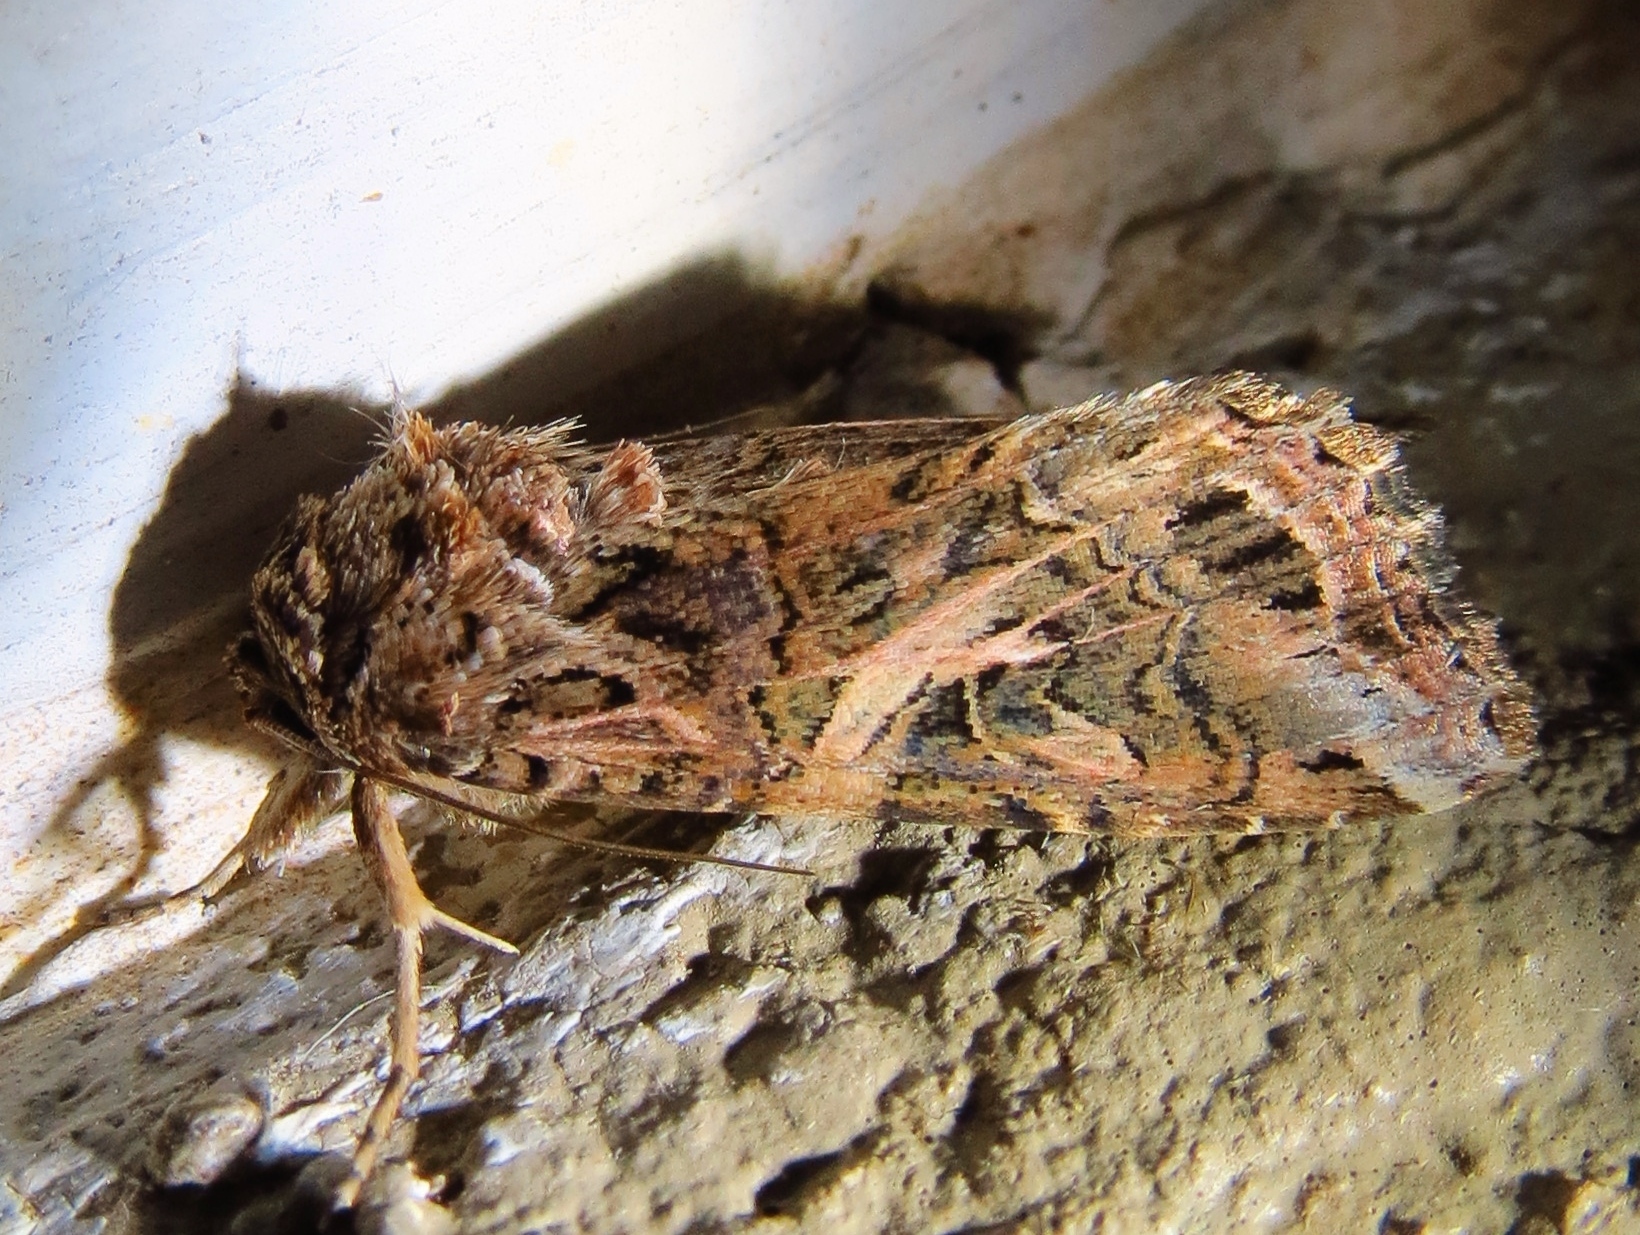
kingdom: Animalia
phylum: Arthropoda
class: Insecta
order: Lepidoptera
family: Noctuidae
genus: Spodoptera
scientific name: Spodoptera ornithogalli
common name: Yellow-striped armyworm
